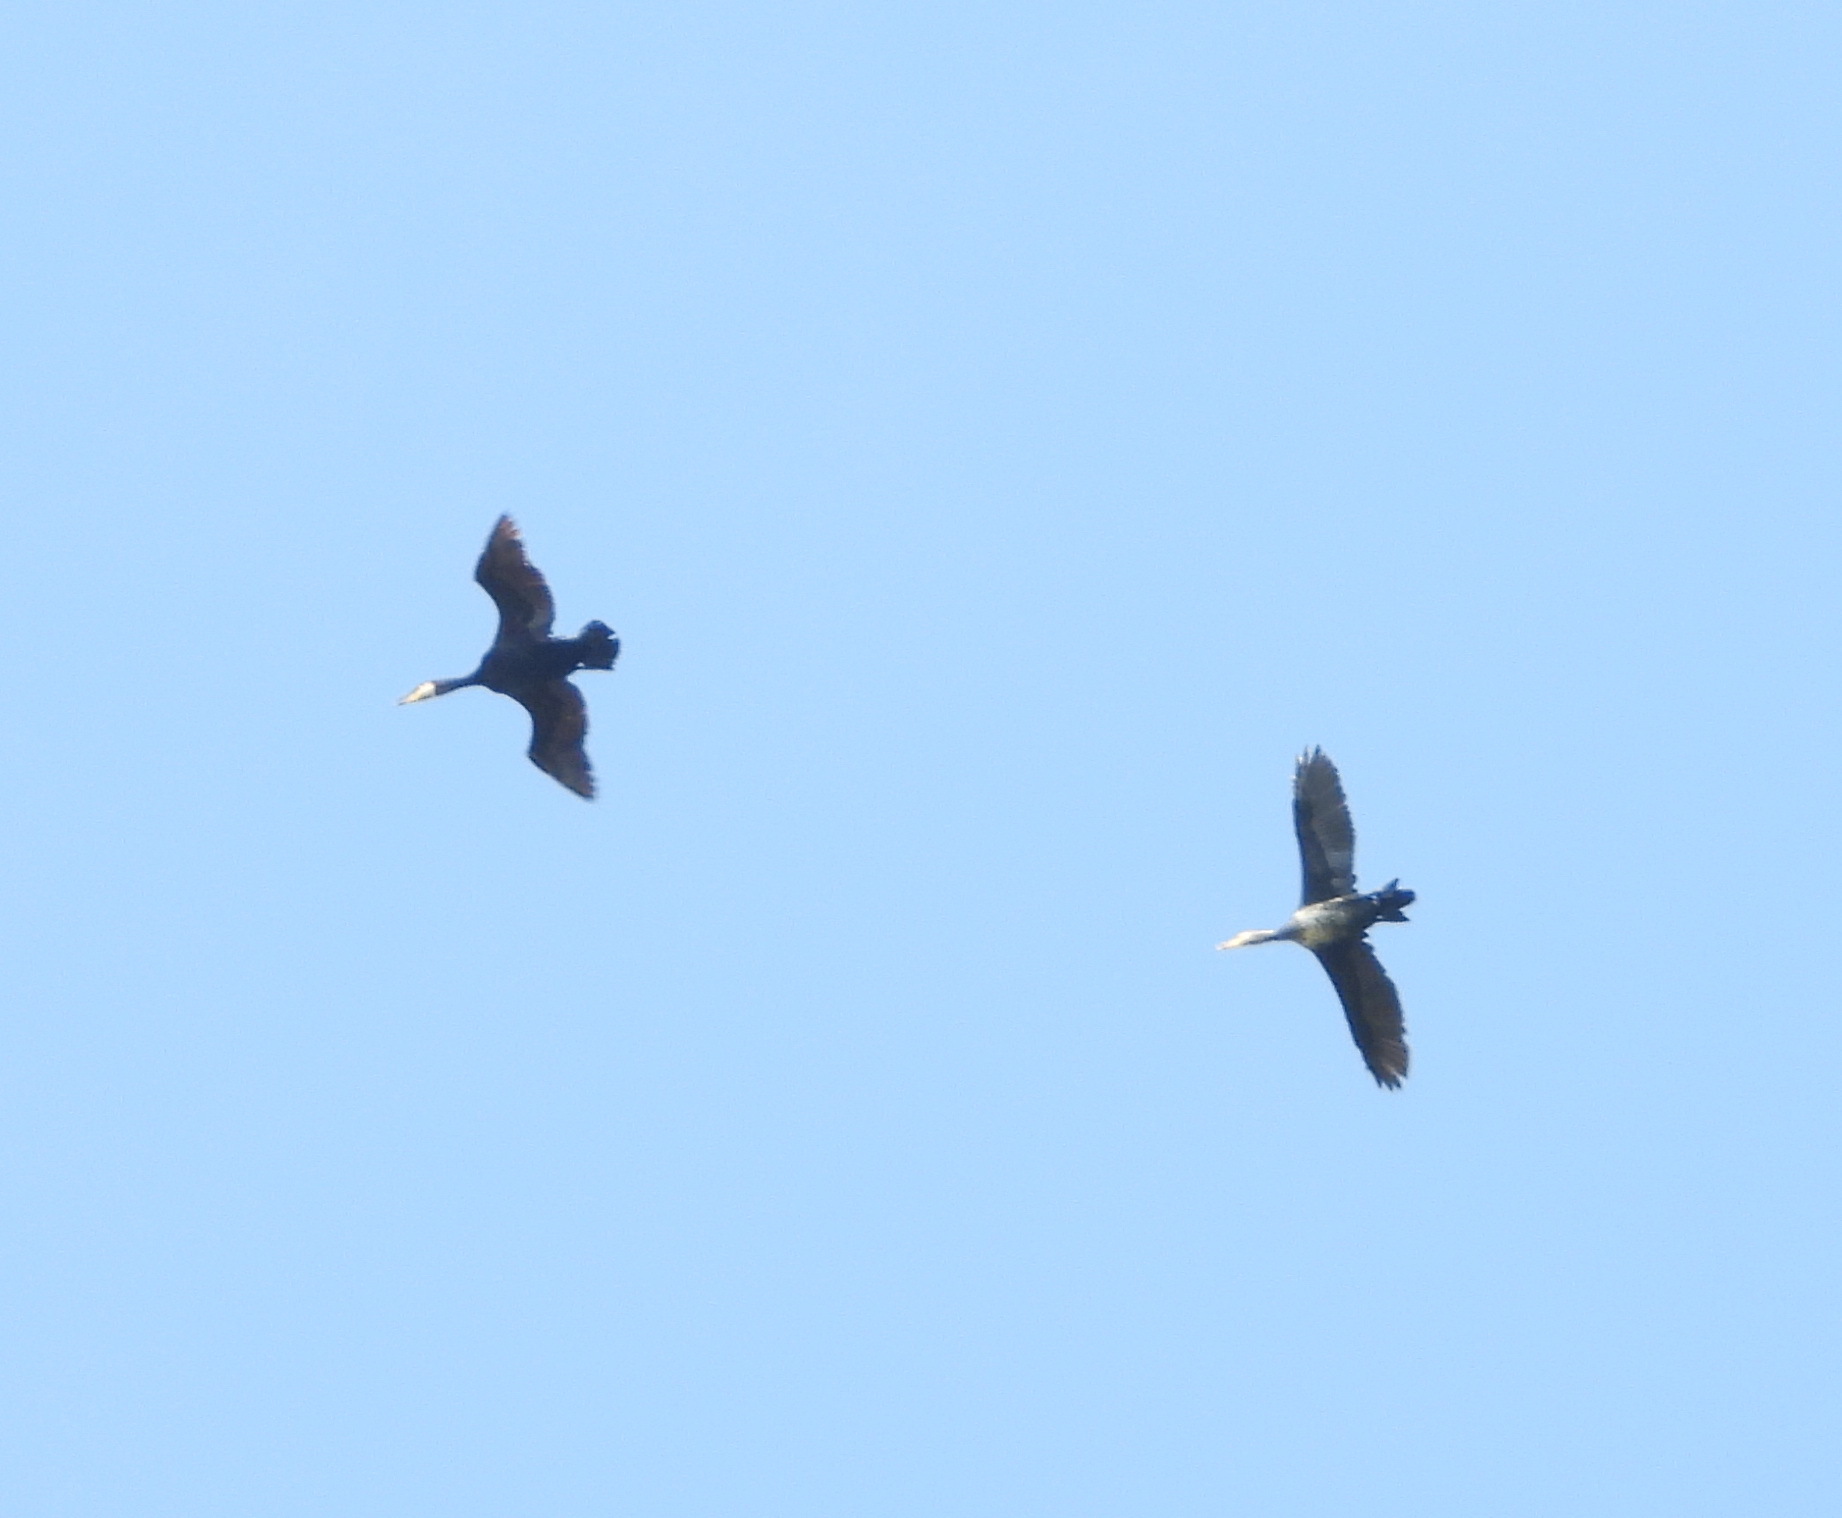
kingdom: Animalia
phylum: Chordata
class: Aves
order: Suliformes
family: Phalacrocoracidae
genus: Phalacrocorax
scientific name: Phalacrocorax carbo
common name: Great cormorant
